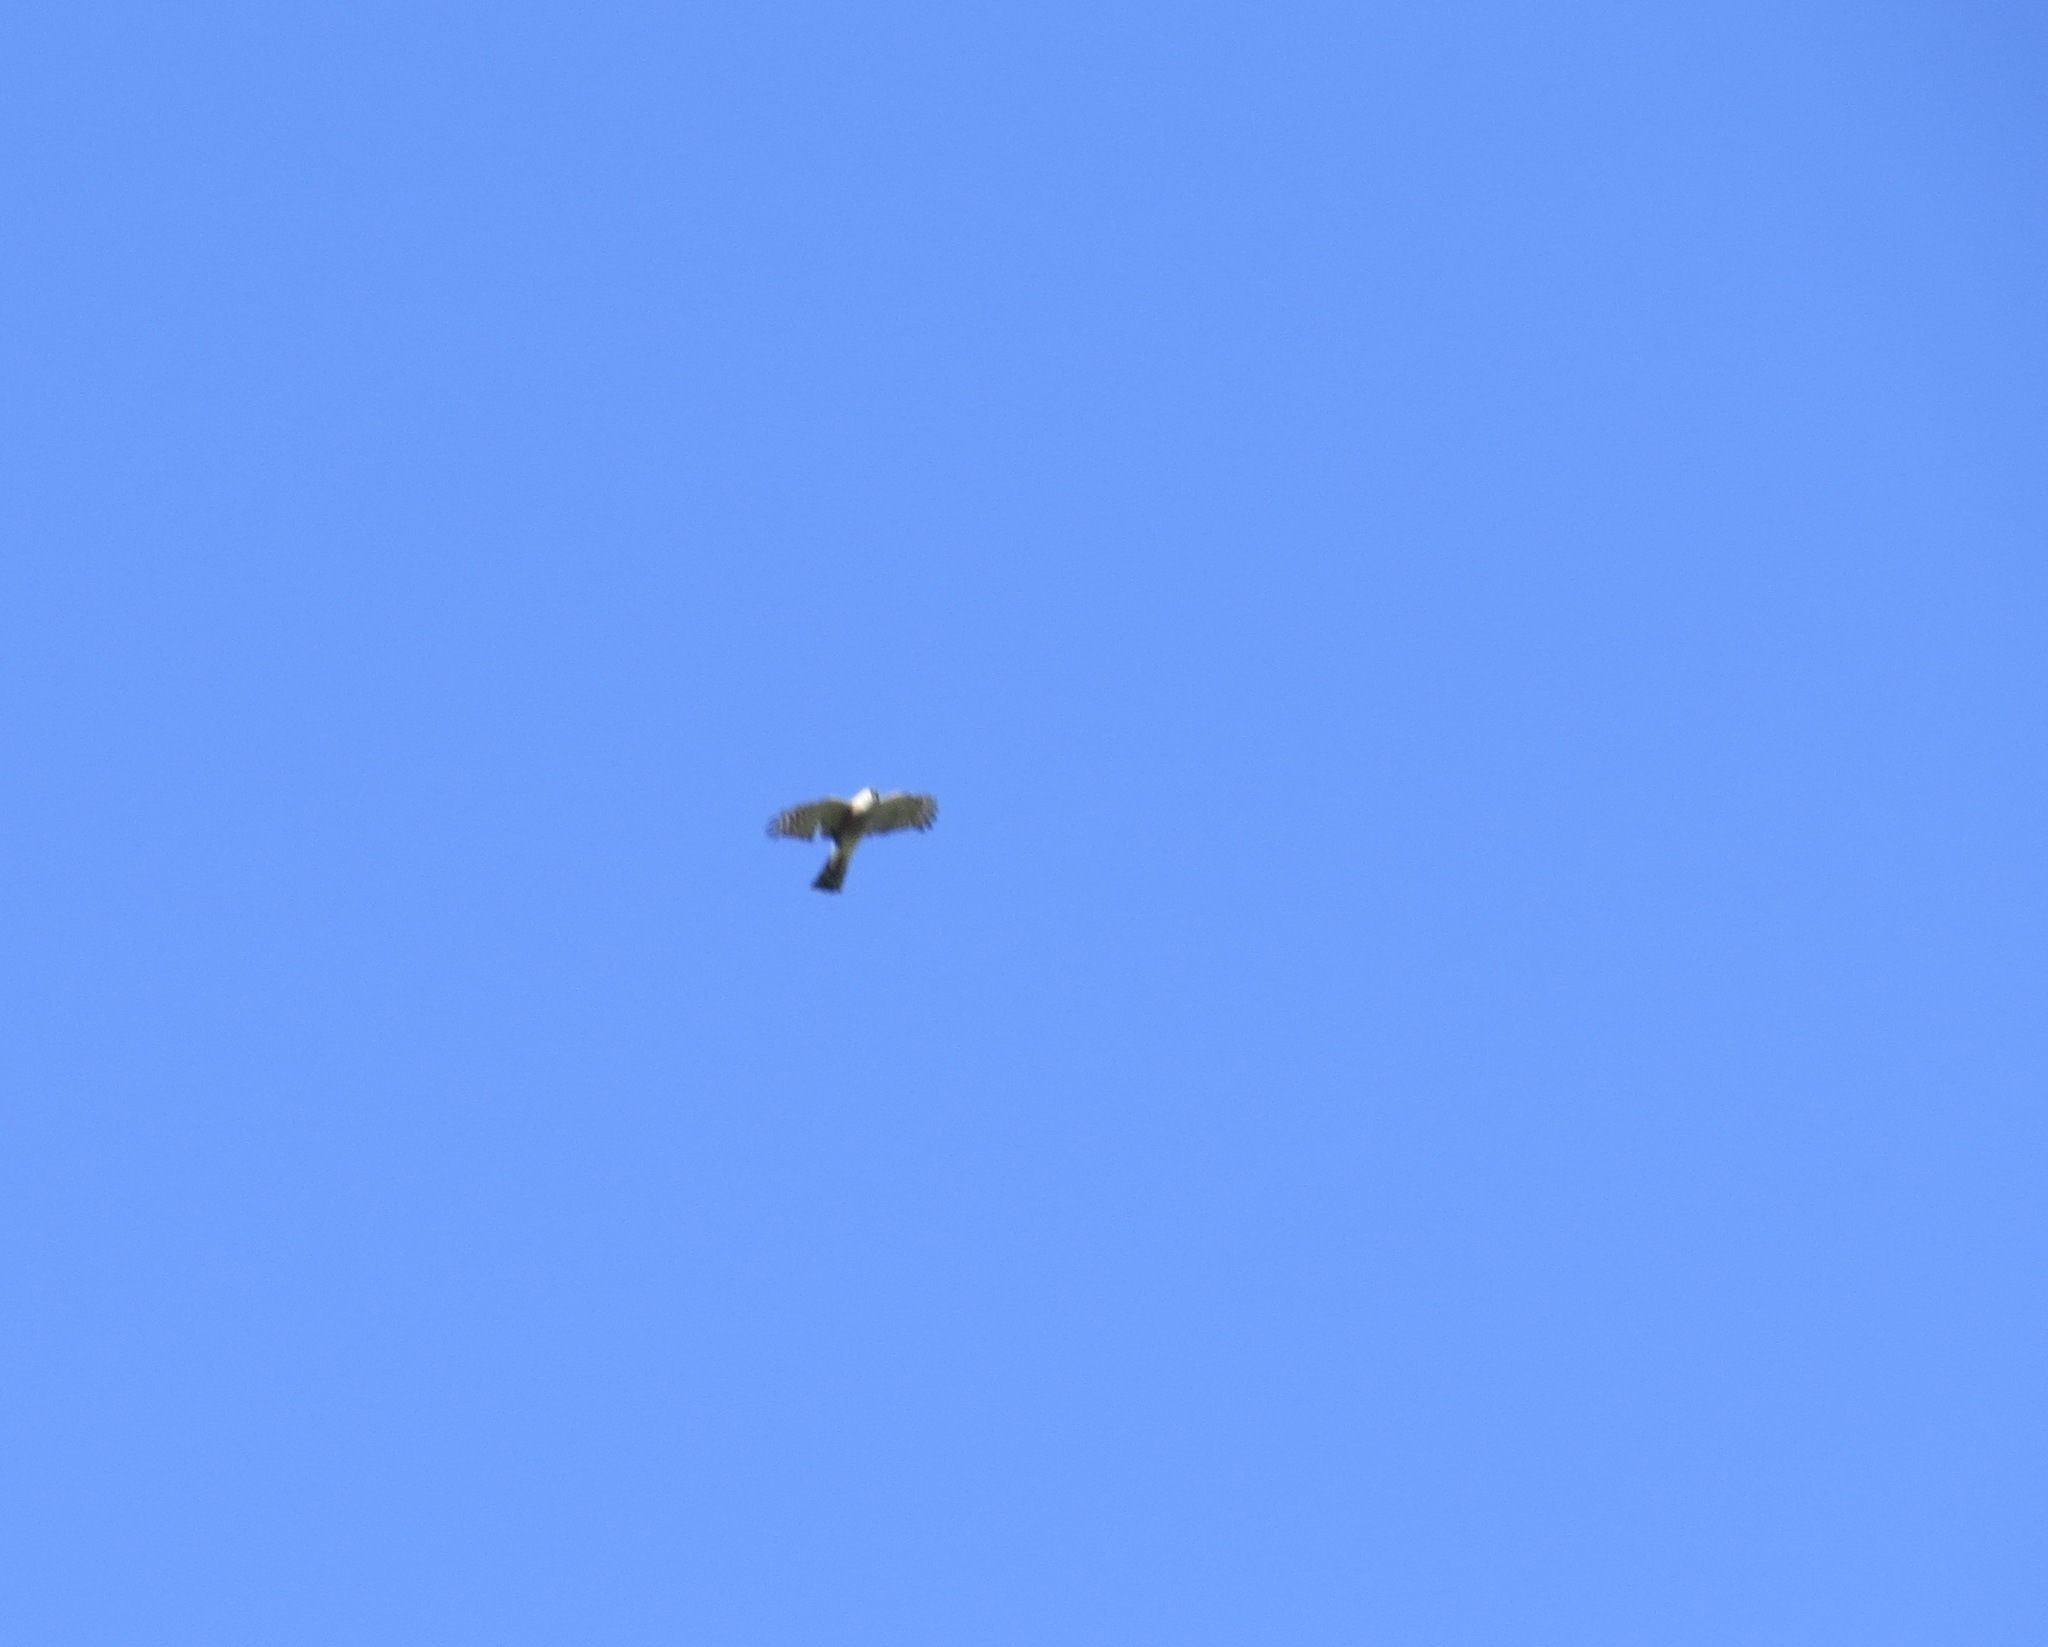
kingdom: Animalia
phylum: Chordata
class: Aves
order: Accipitriformes
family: Accipitridae
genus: Accipiter
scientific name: Accipiter striatus
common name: Sharp-shinned hawk
